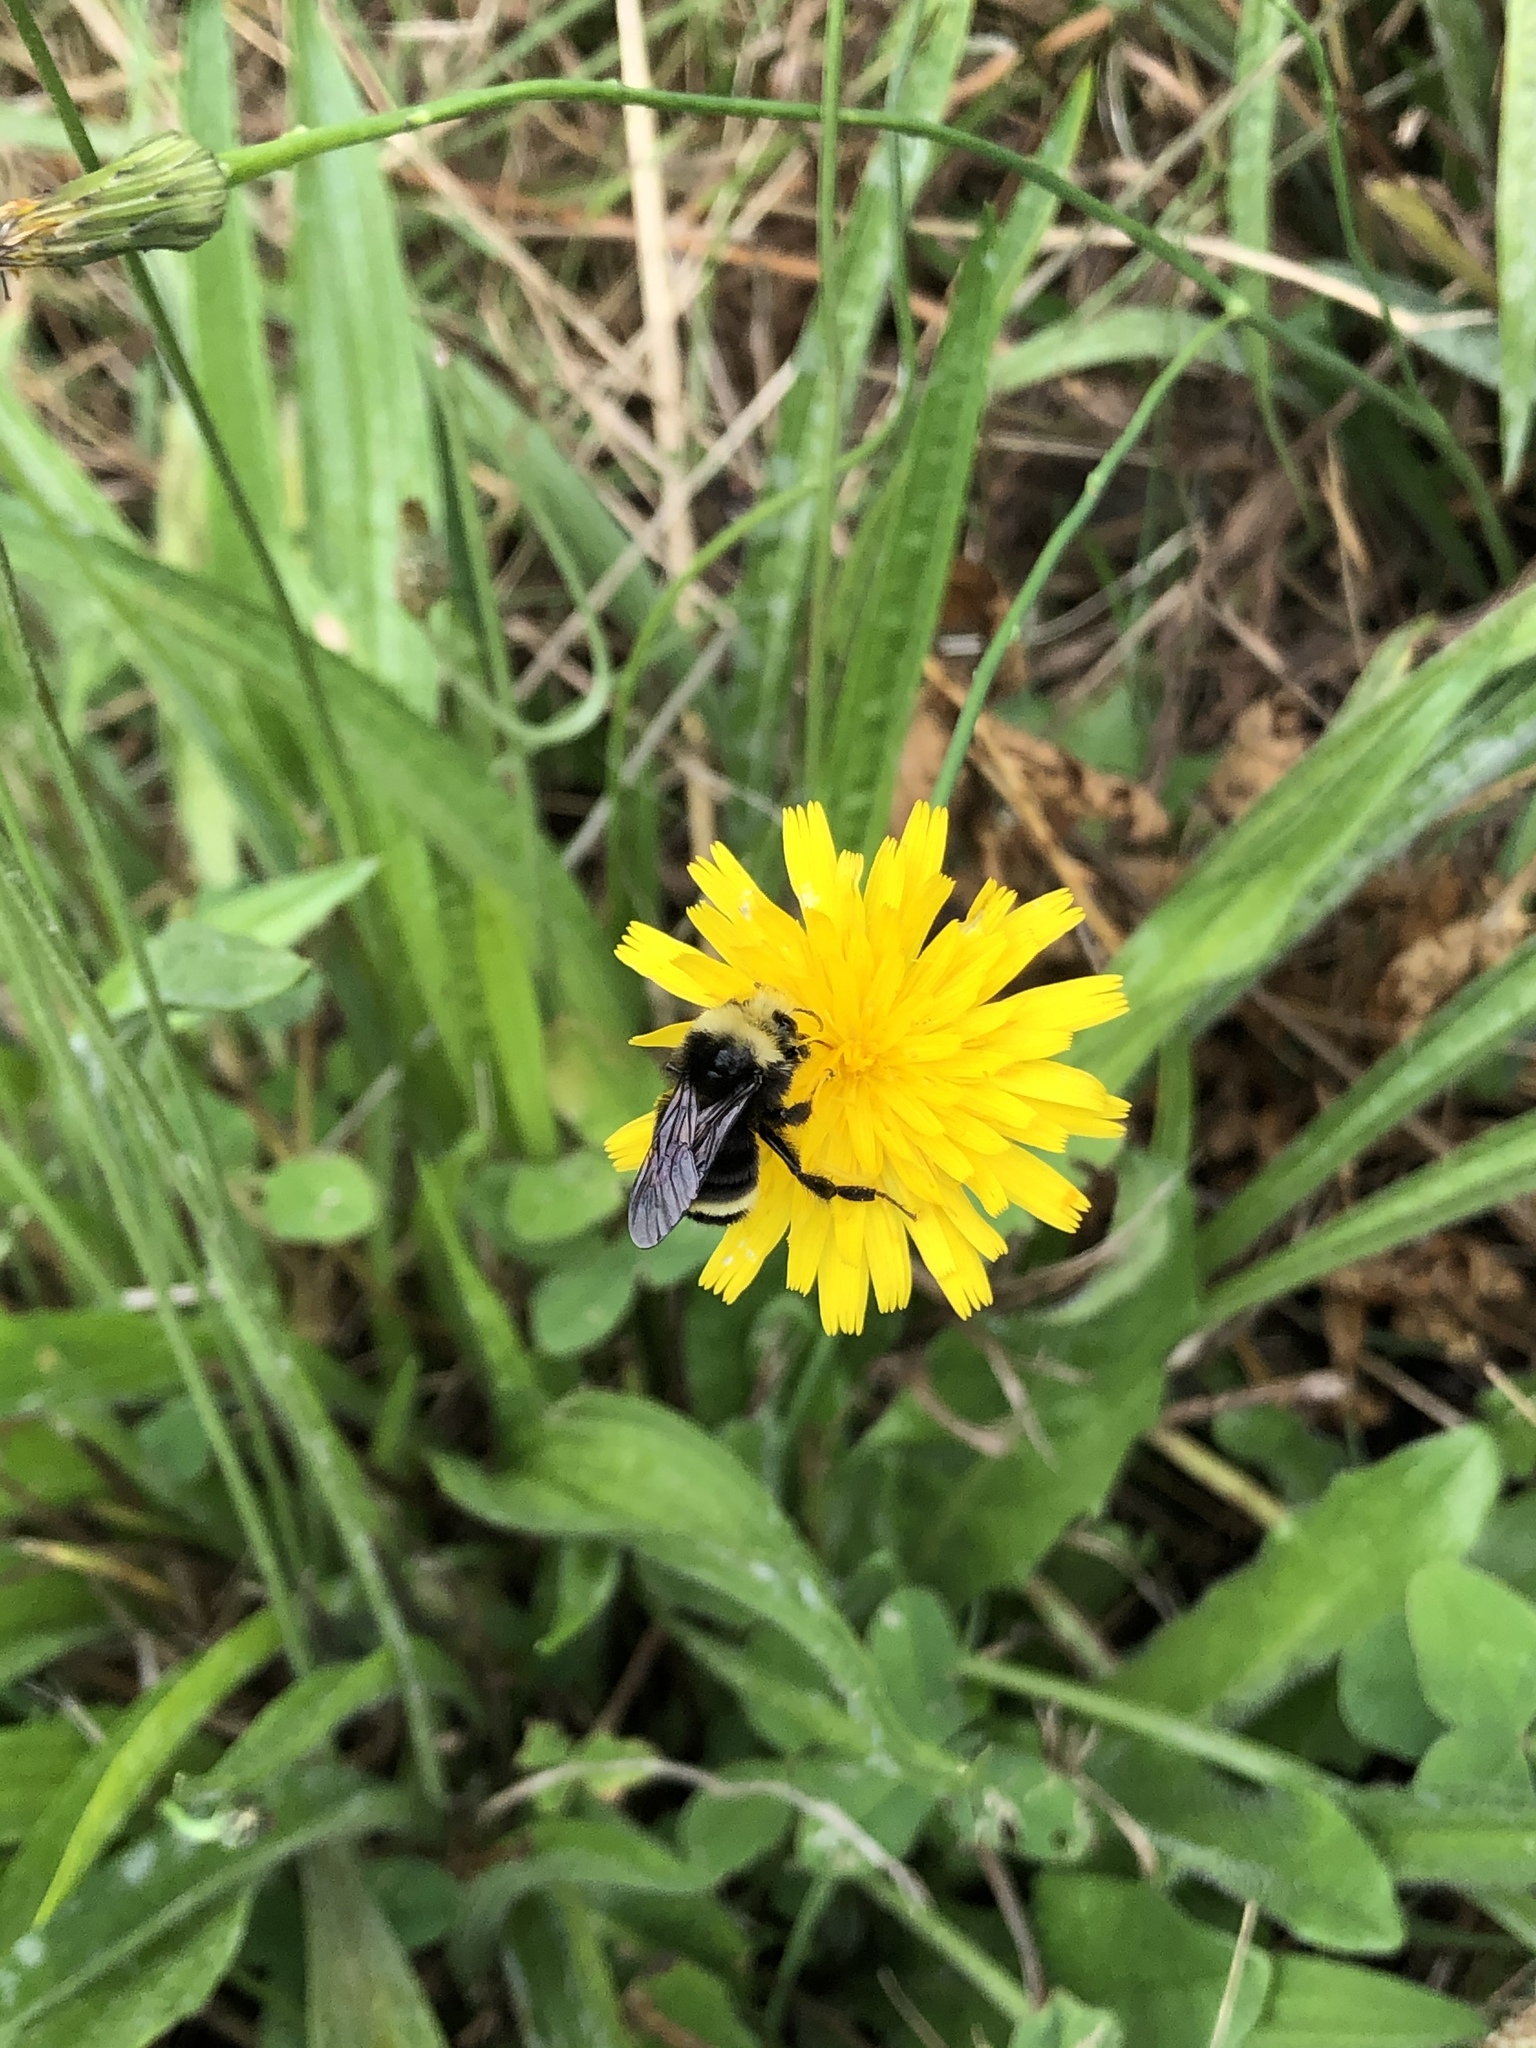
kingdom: Animalia
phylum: Arthropoda
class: Insecta
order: Hymenoptera
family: Apidae
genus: Bombus
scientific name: Bombus vosnesenskii
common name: Vosnesensky bumble bee
